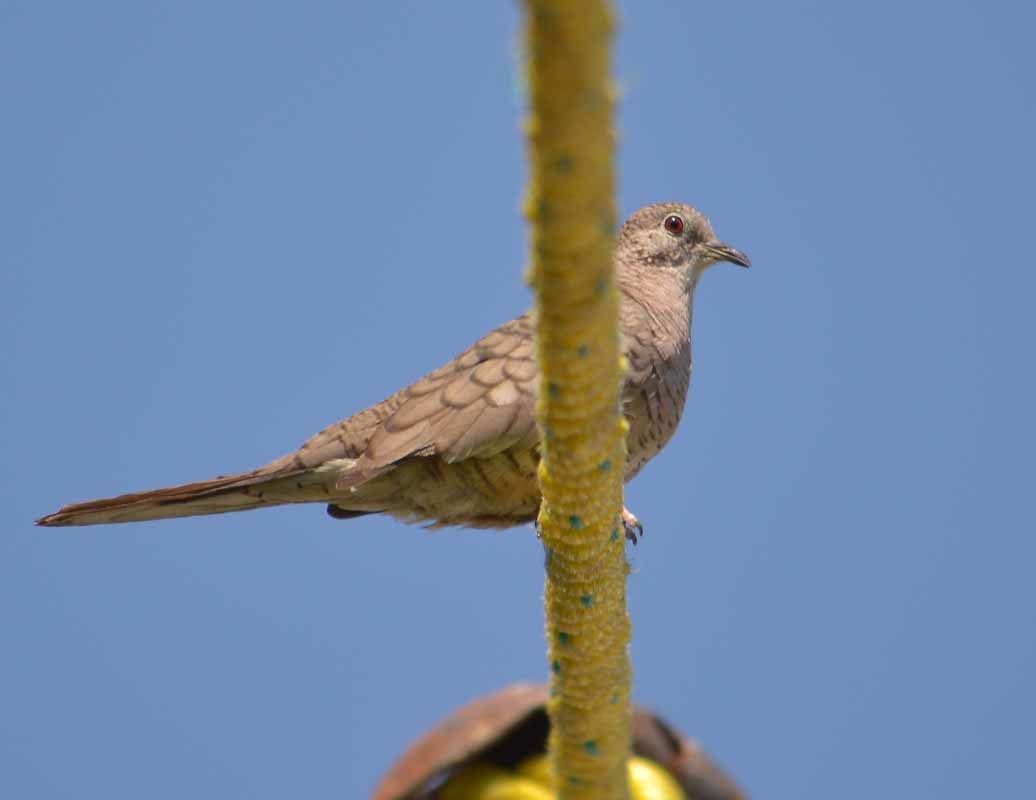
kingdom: Animalia
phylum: Chordata
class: Aves
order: Columbiformes
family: Columbidae
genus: Columbina
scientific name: Columbina inca
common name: Inca dove
